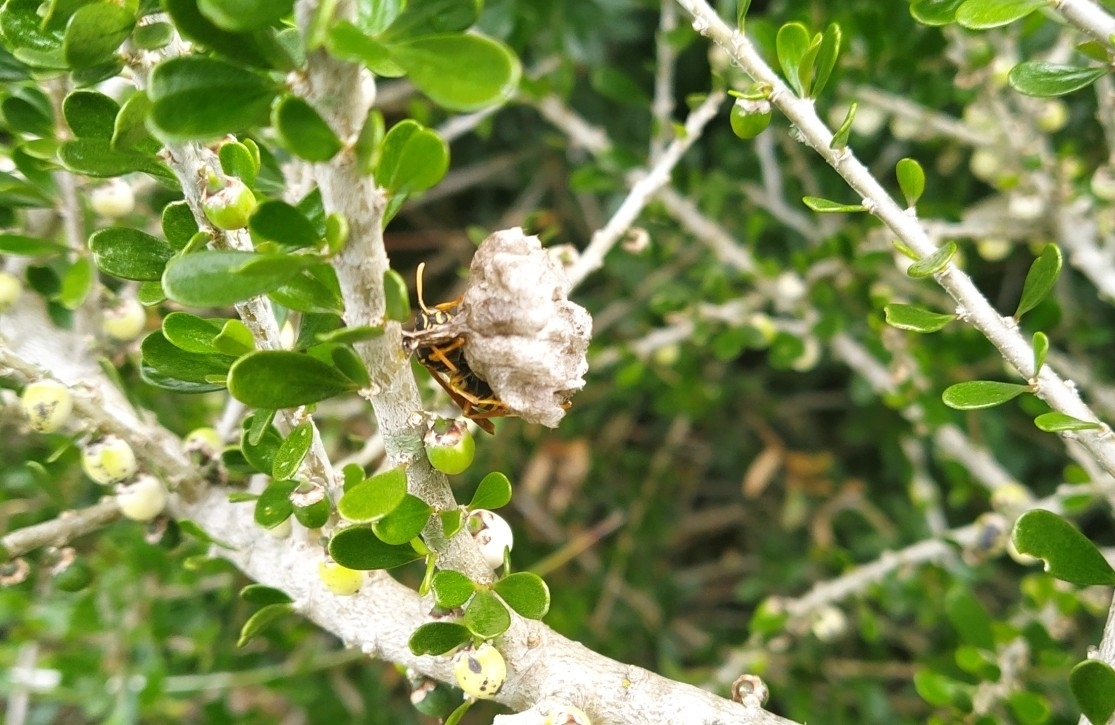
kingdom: Animalia
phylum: Arthropoda
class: Insecta
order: Hymenoptera
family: Eumenidae
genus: Polistes
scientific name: Polistes chinensis
